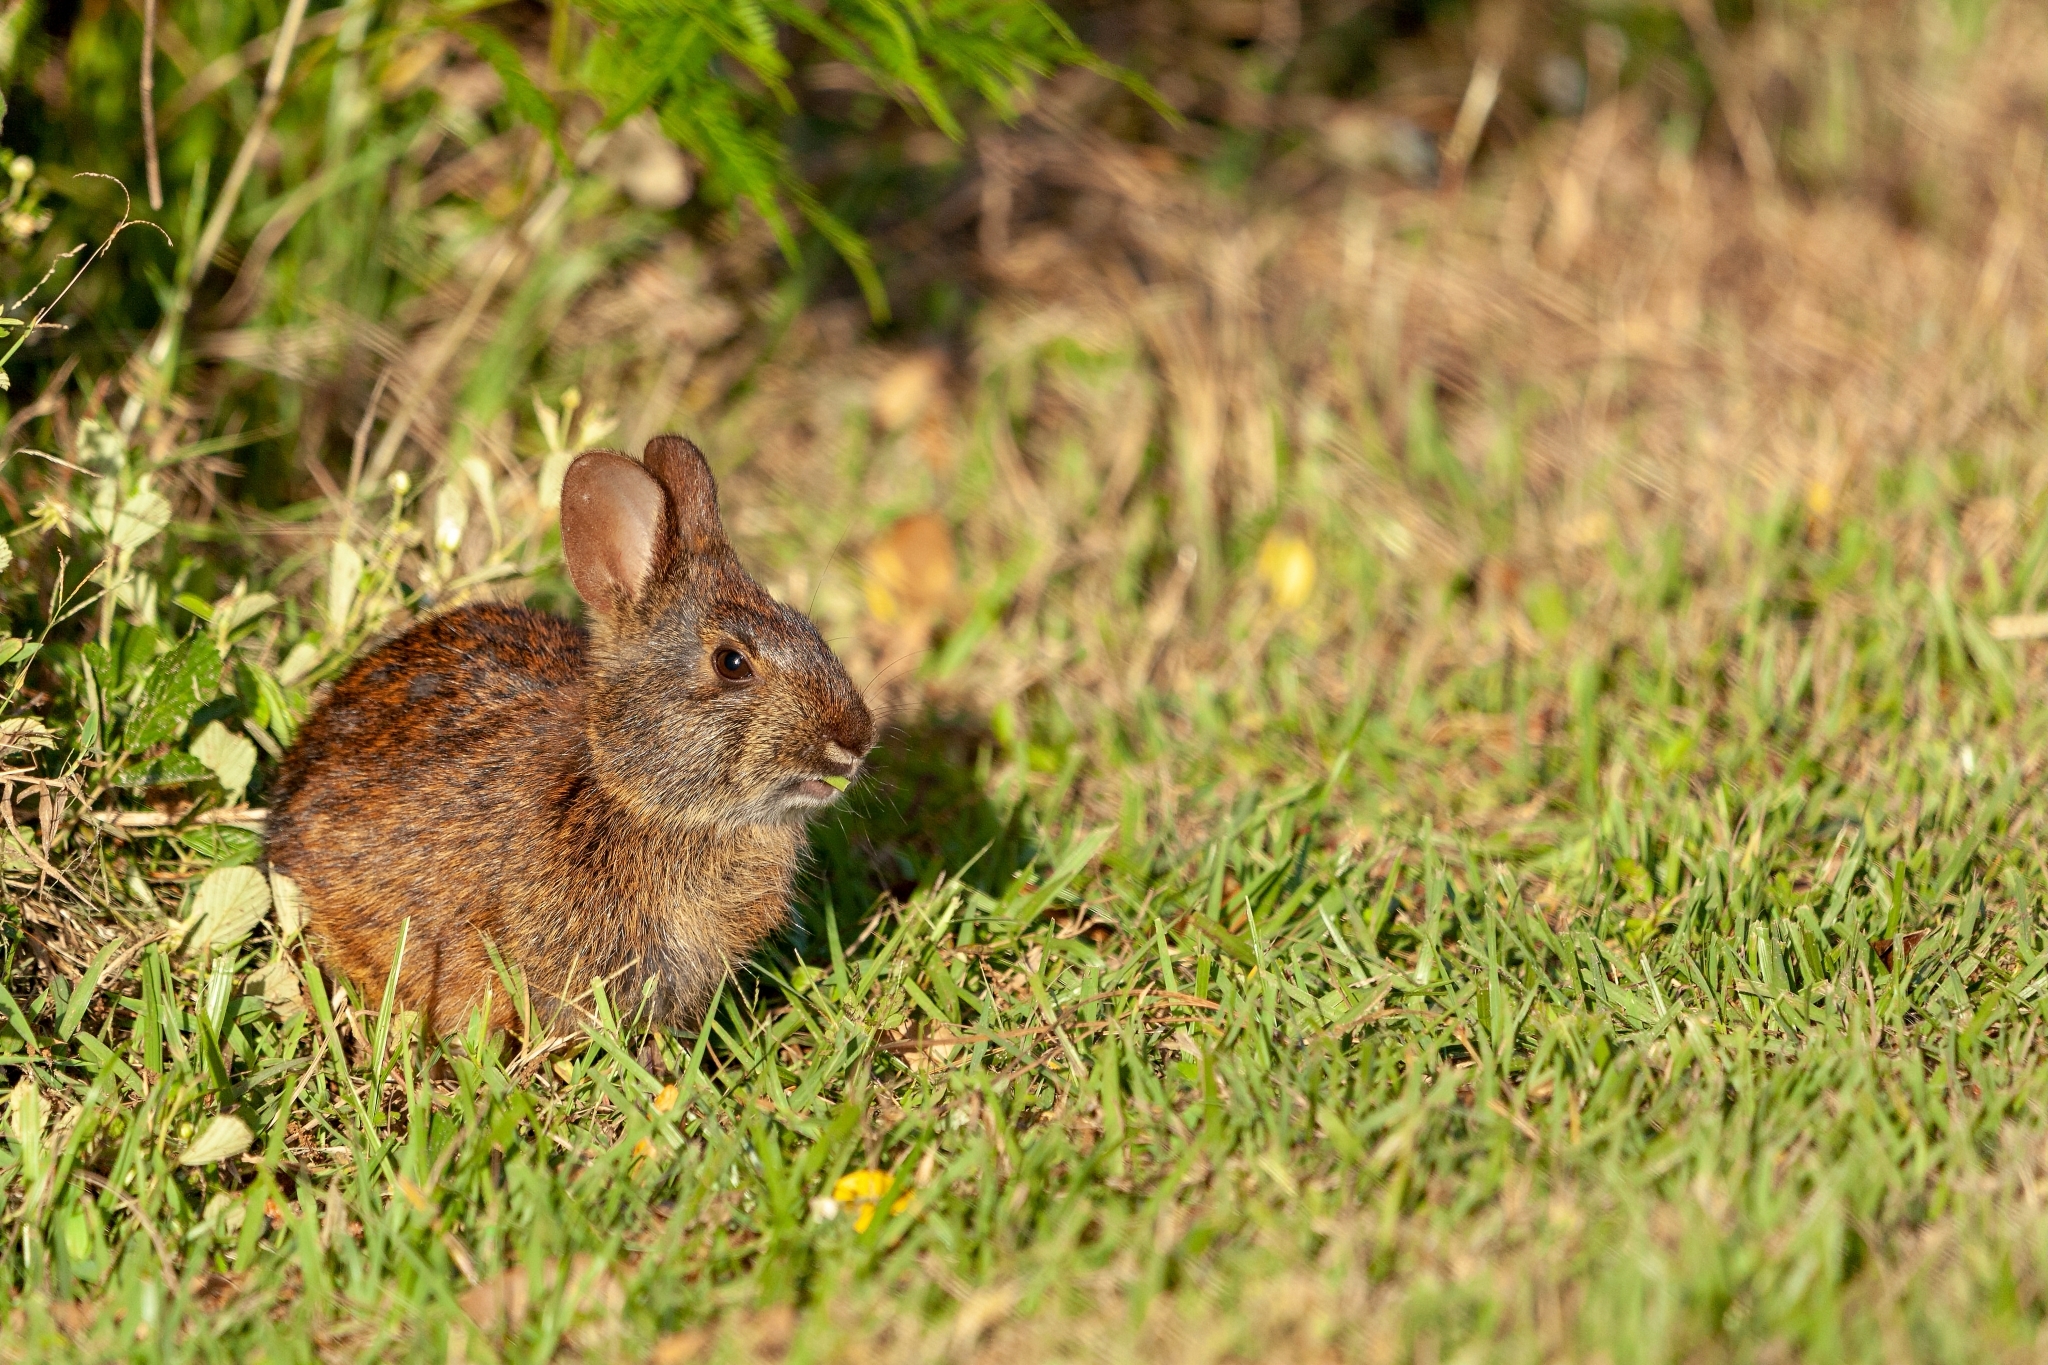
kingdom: Animalia
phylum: Chordata
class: Mammalia
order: Lagomorpha
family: Leporidae
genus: Sylvilagus
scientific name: Sylvilagus palustris
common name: Marsh rabbit
